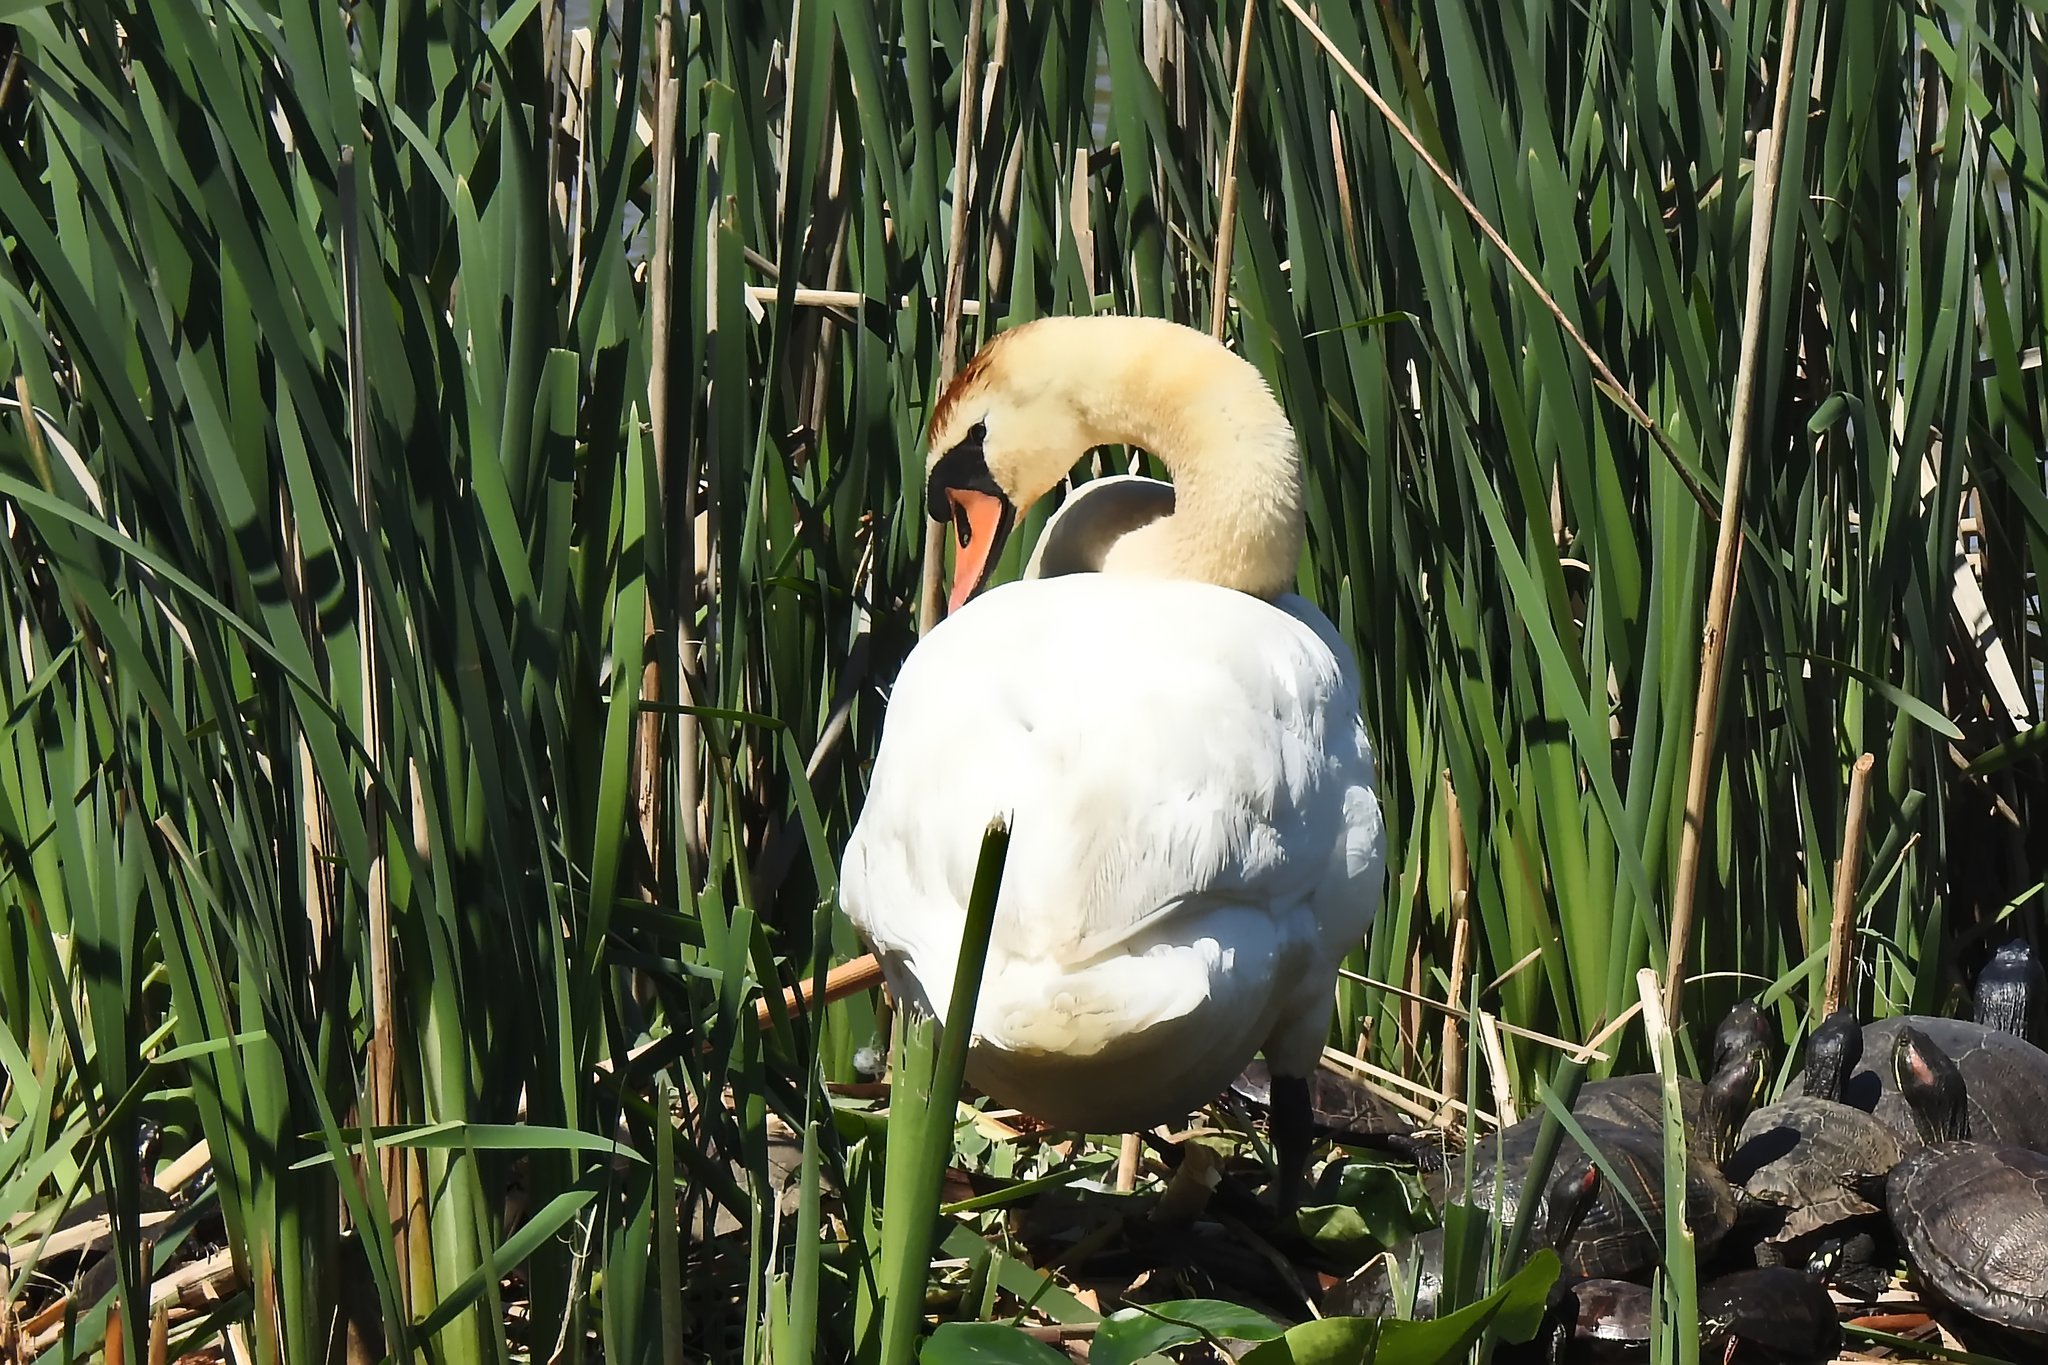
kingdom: Animalia
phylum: Chordata
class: Aves
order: Anseriformes
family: Anatidae
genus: Cygnus
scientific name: Cygnus olor
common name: Mute swan
